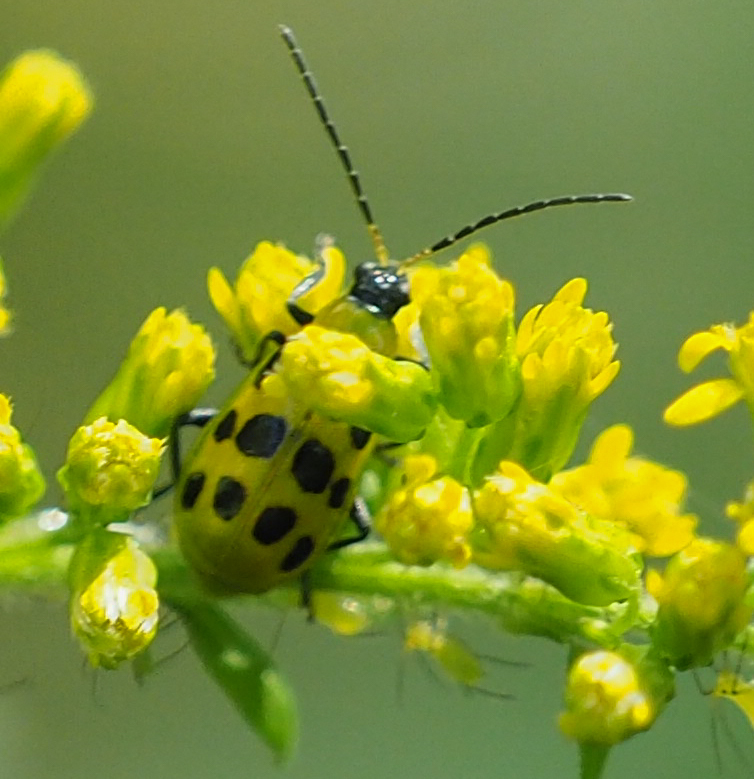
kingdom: Animalia
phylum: Arthropoda
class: Insecta
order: Coleoptera
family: Chrysomelidae
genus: Diabrotica
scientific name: Diabrotica undecimpunctata
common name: Spotted cucumber beetle
